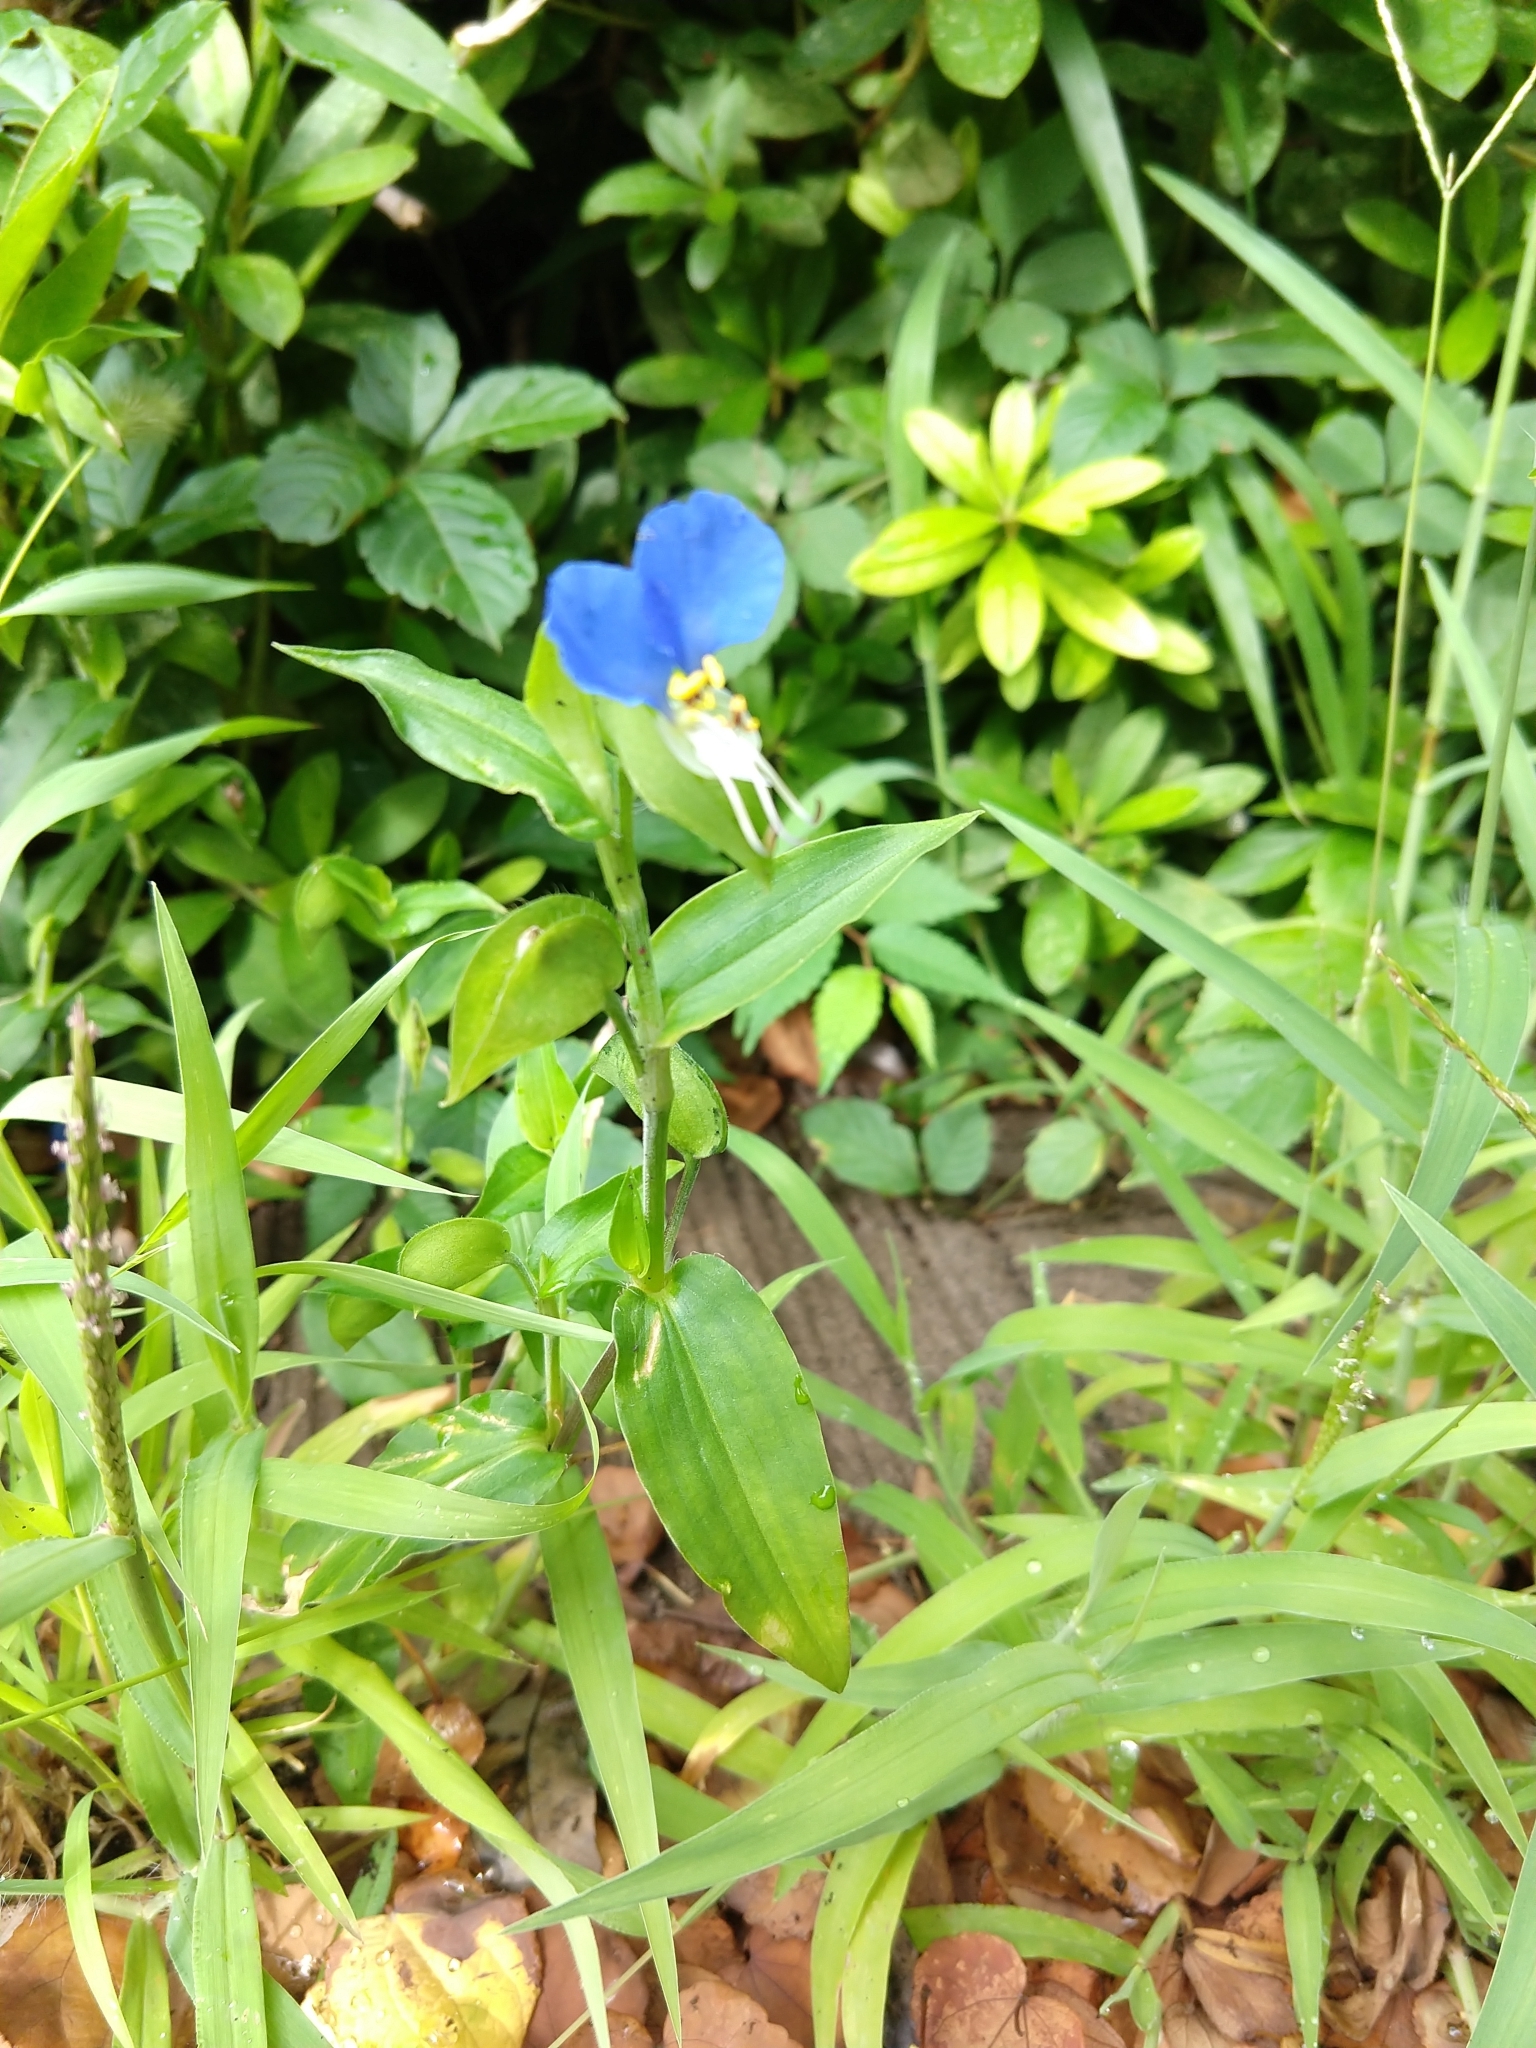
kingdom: Plantae
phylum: Tracheophyta
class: Liliopsida
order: Commelinales
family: Commelinaceae
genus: Commelina
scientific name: Commelina communis
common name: Asiatic dayflower
